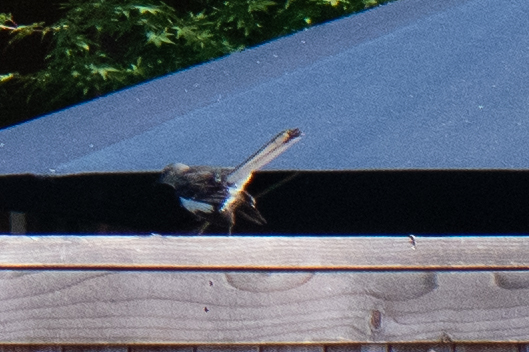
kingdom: Animalia
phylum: Chordata
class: Aves
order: Passeriformes
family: Mimidae
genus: Mimus
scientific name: Mimus polyglottos
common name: Northern mockingbird
